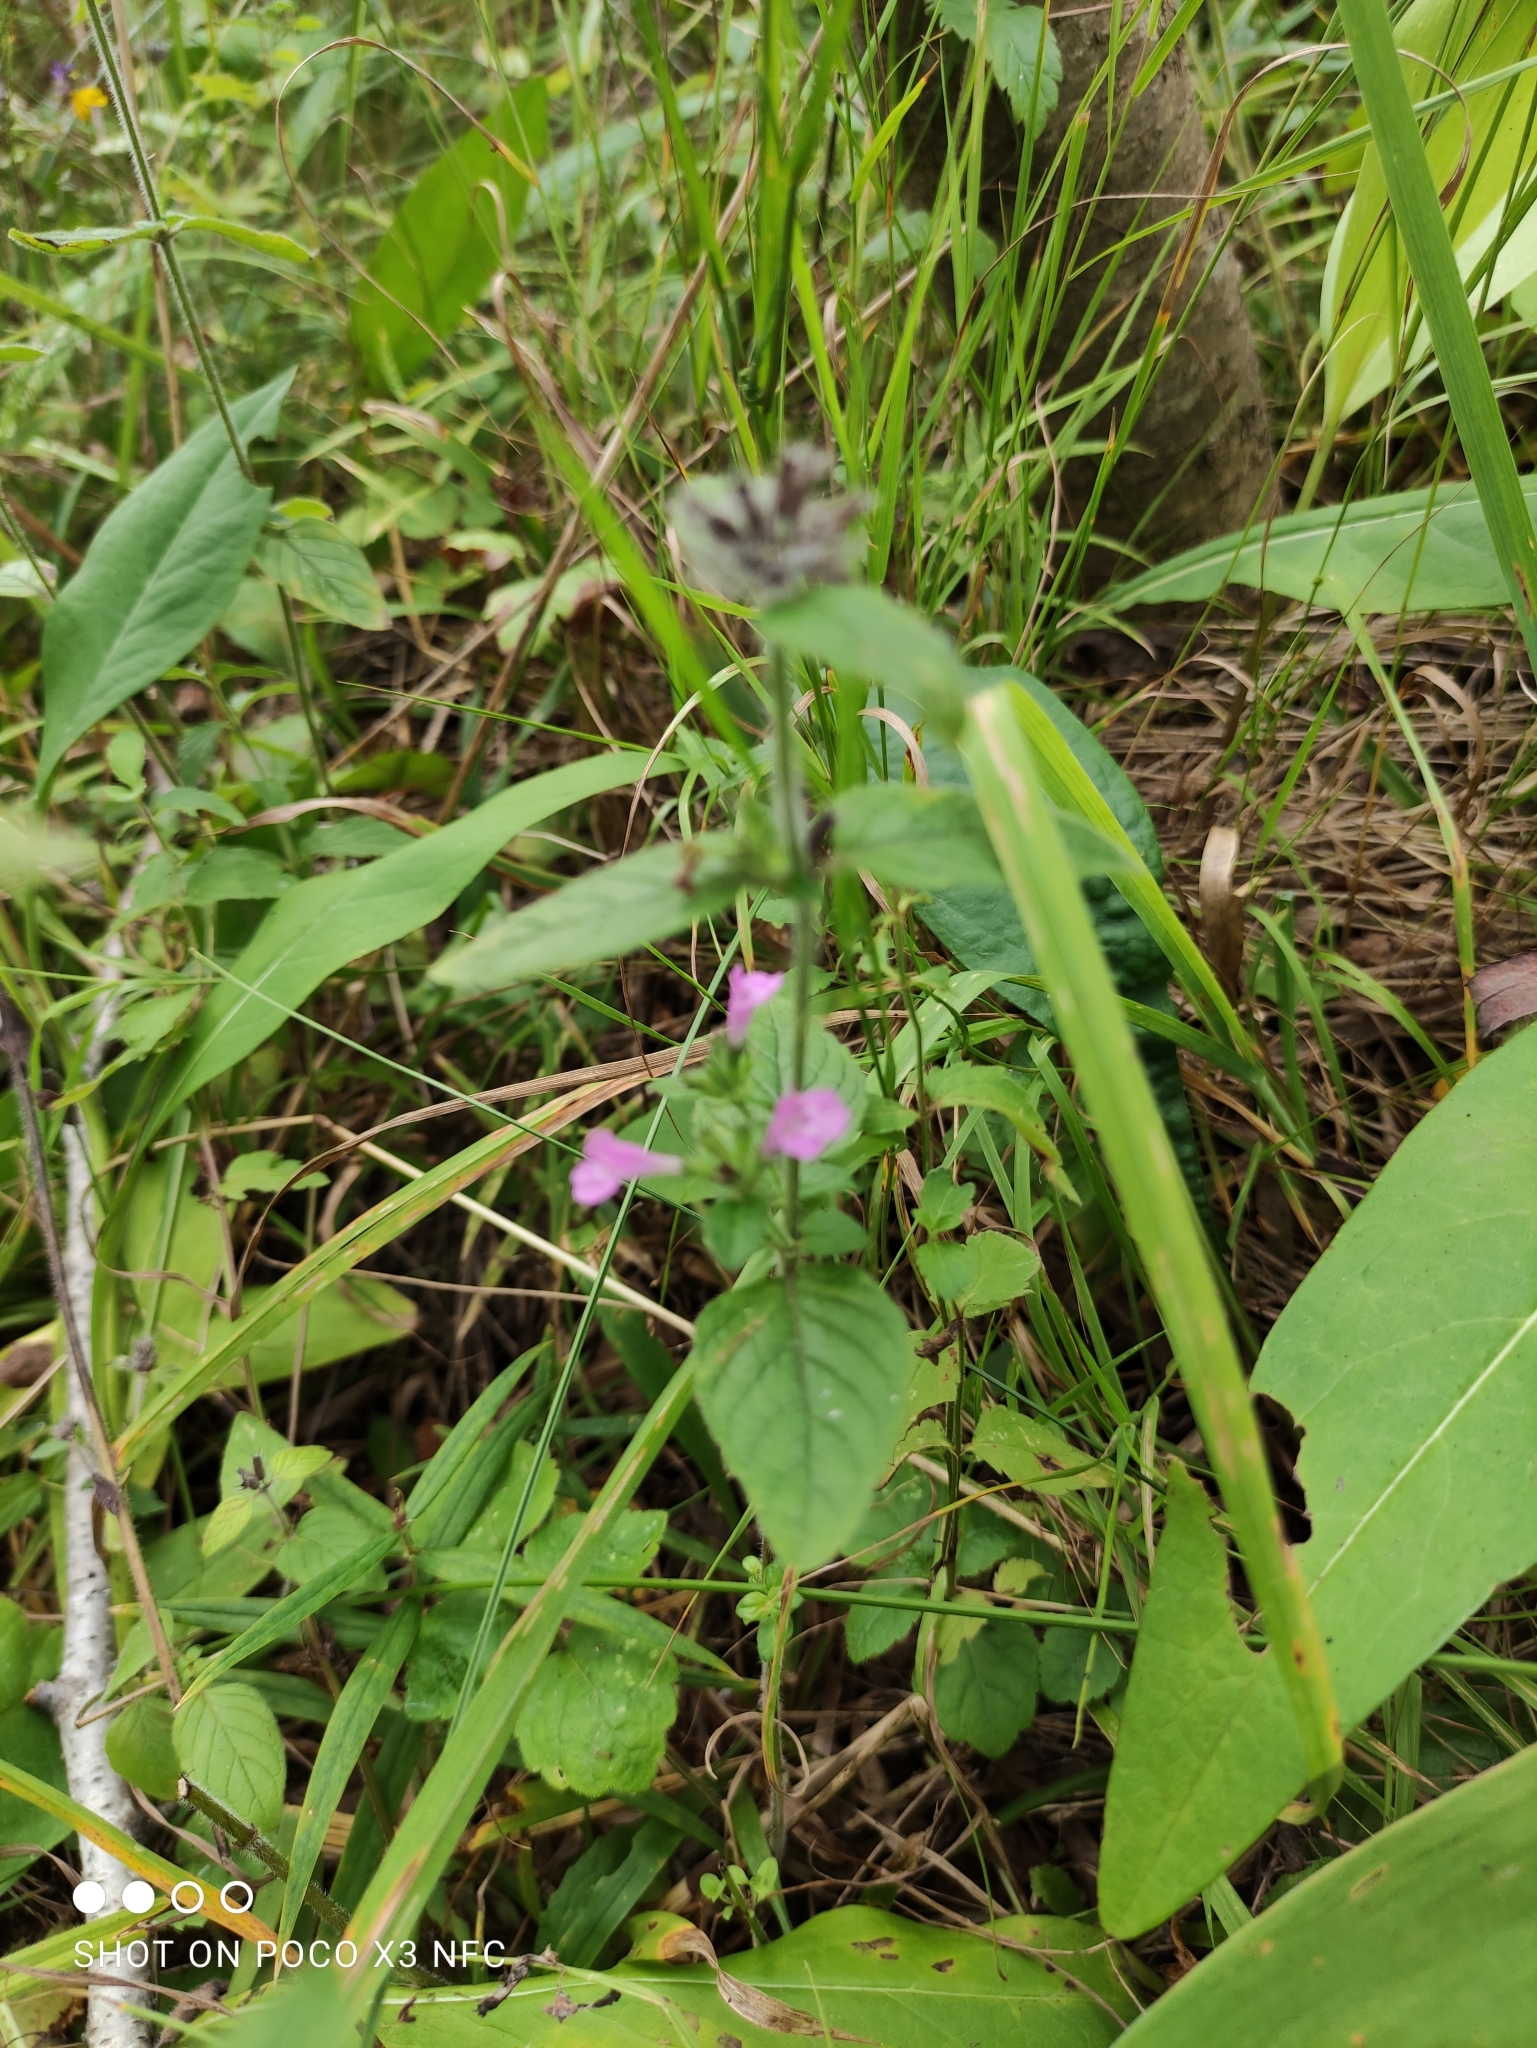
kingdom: Plantae
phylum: Tracheophyta
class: Magnoliopsida
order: Lamiales
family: Lamiaceae
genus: Clinopodium
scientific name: Clinopodium vulgare
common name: Wild basil
